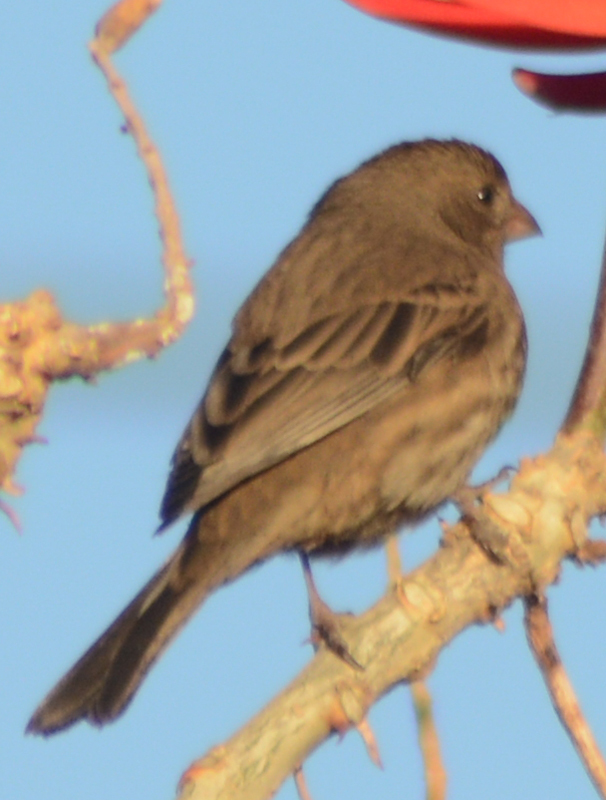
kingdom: Animalia
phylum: Chordata
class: Aves
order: Passeriformes
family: Fringillidae
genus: Haemorhous
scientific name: Haemorhous mexicanus
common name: House finch
